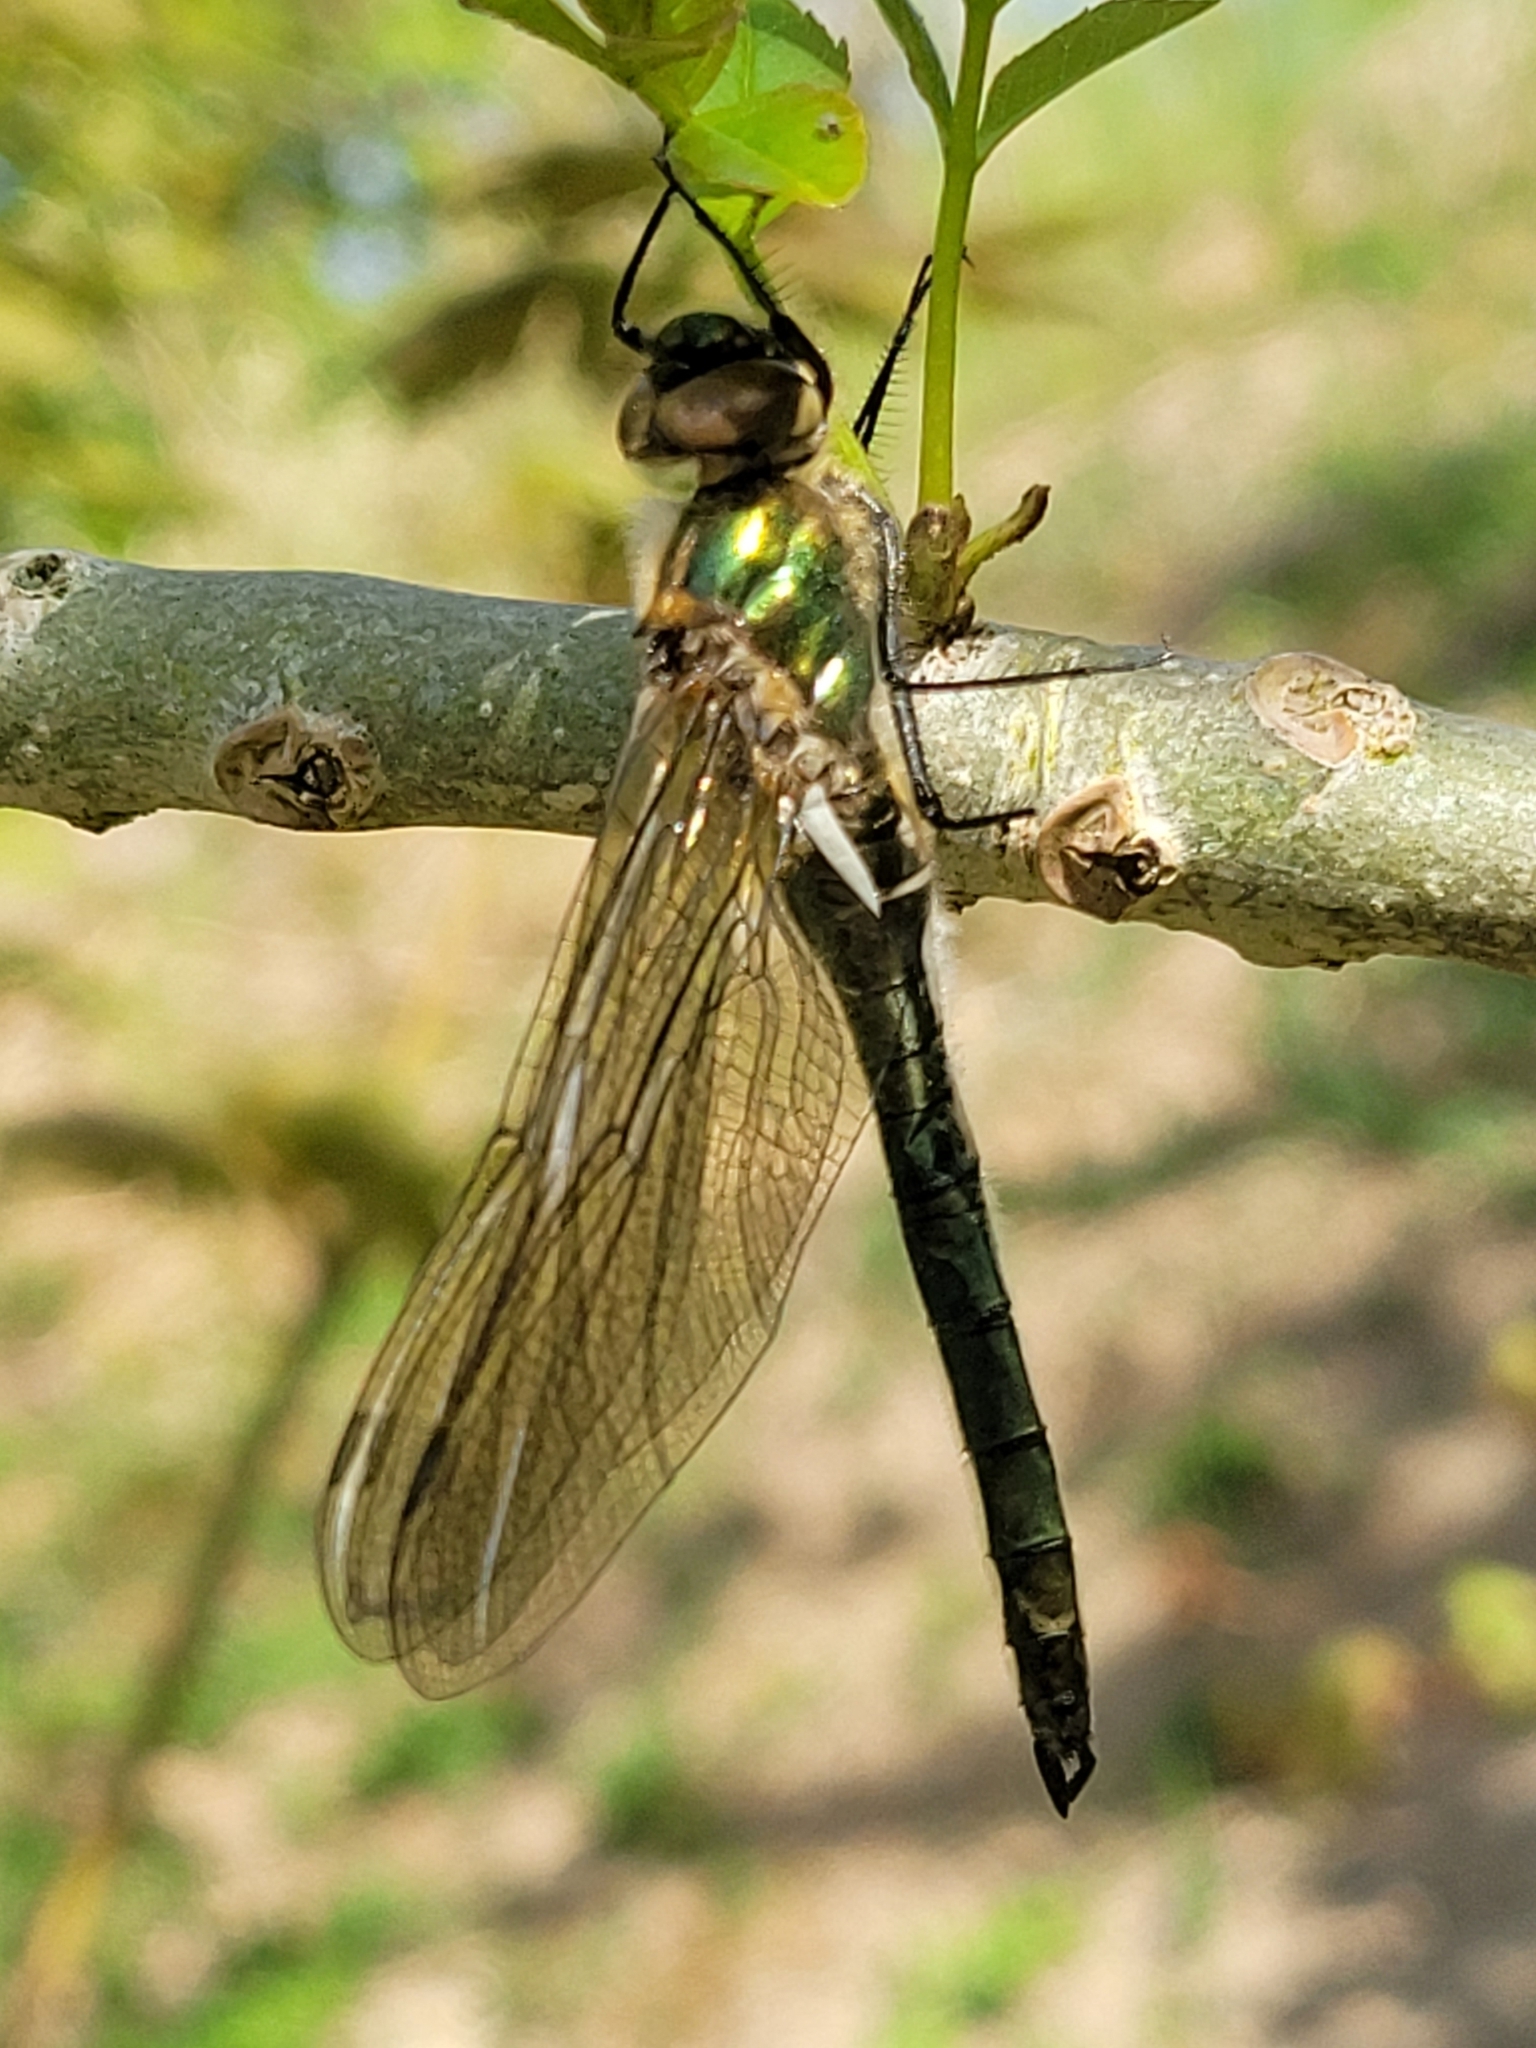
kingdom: Animalia
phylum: Arthropoda
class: Insecta
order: Odonata
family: Corduliidae
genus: Cordulia
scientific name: Cordulia aenea
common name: Downy emerald
